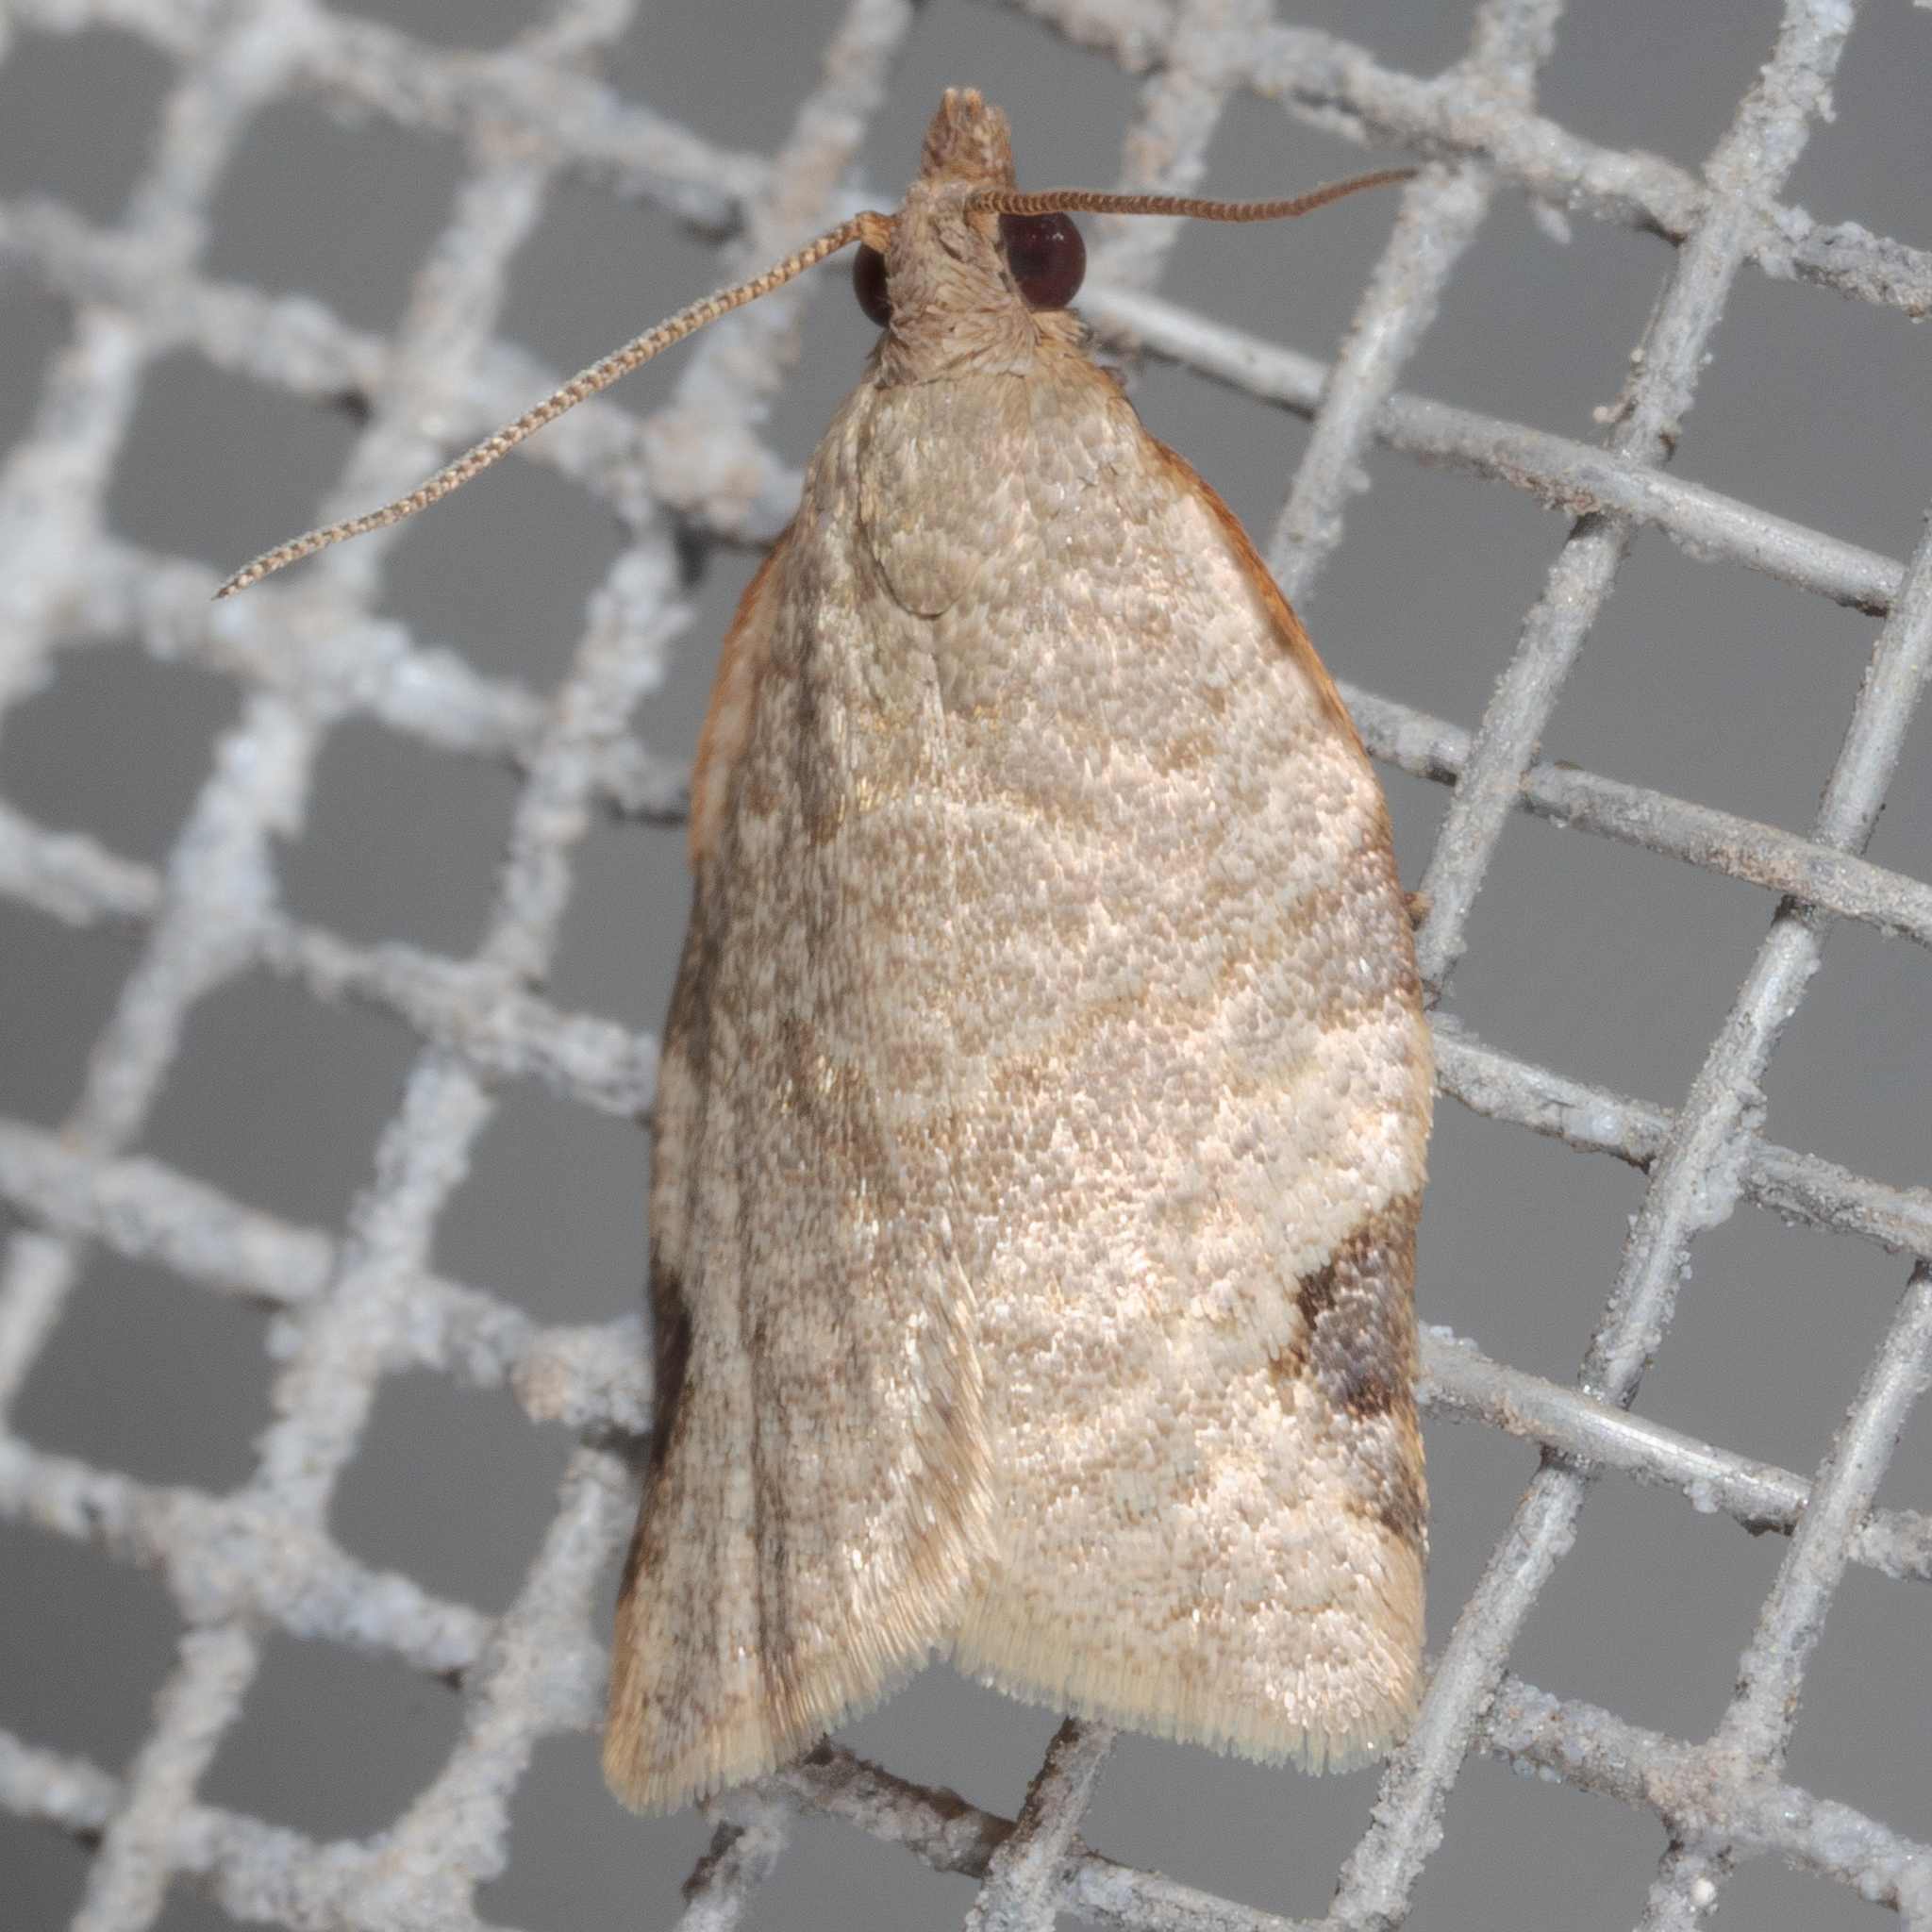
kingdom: Animalia
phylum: Arthropoda
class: Insecta
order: Lepidoptera
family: Tortricidae
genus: Clepsis
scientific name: Clepsis virescana
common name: Greenish apple moth
